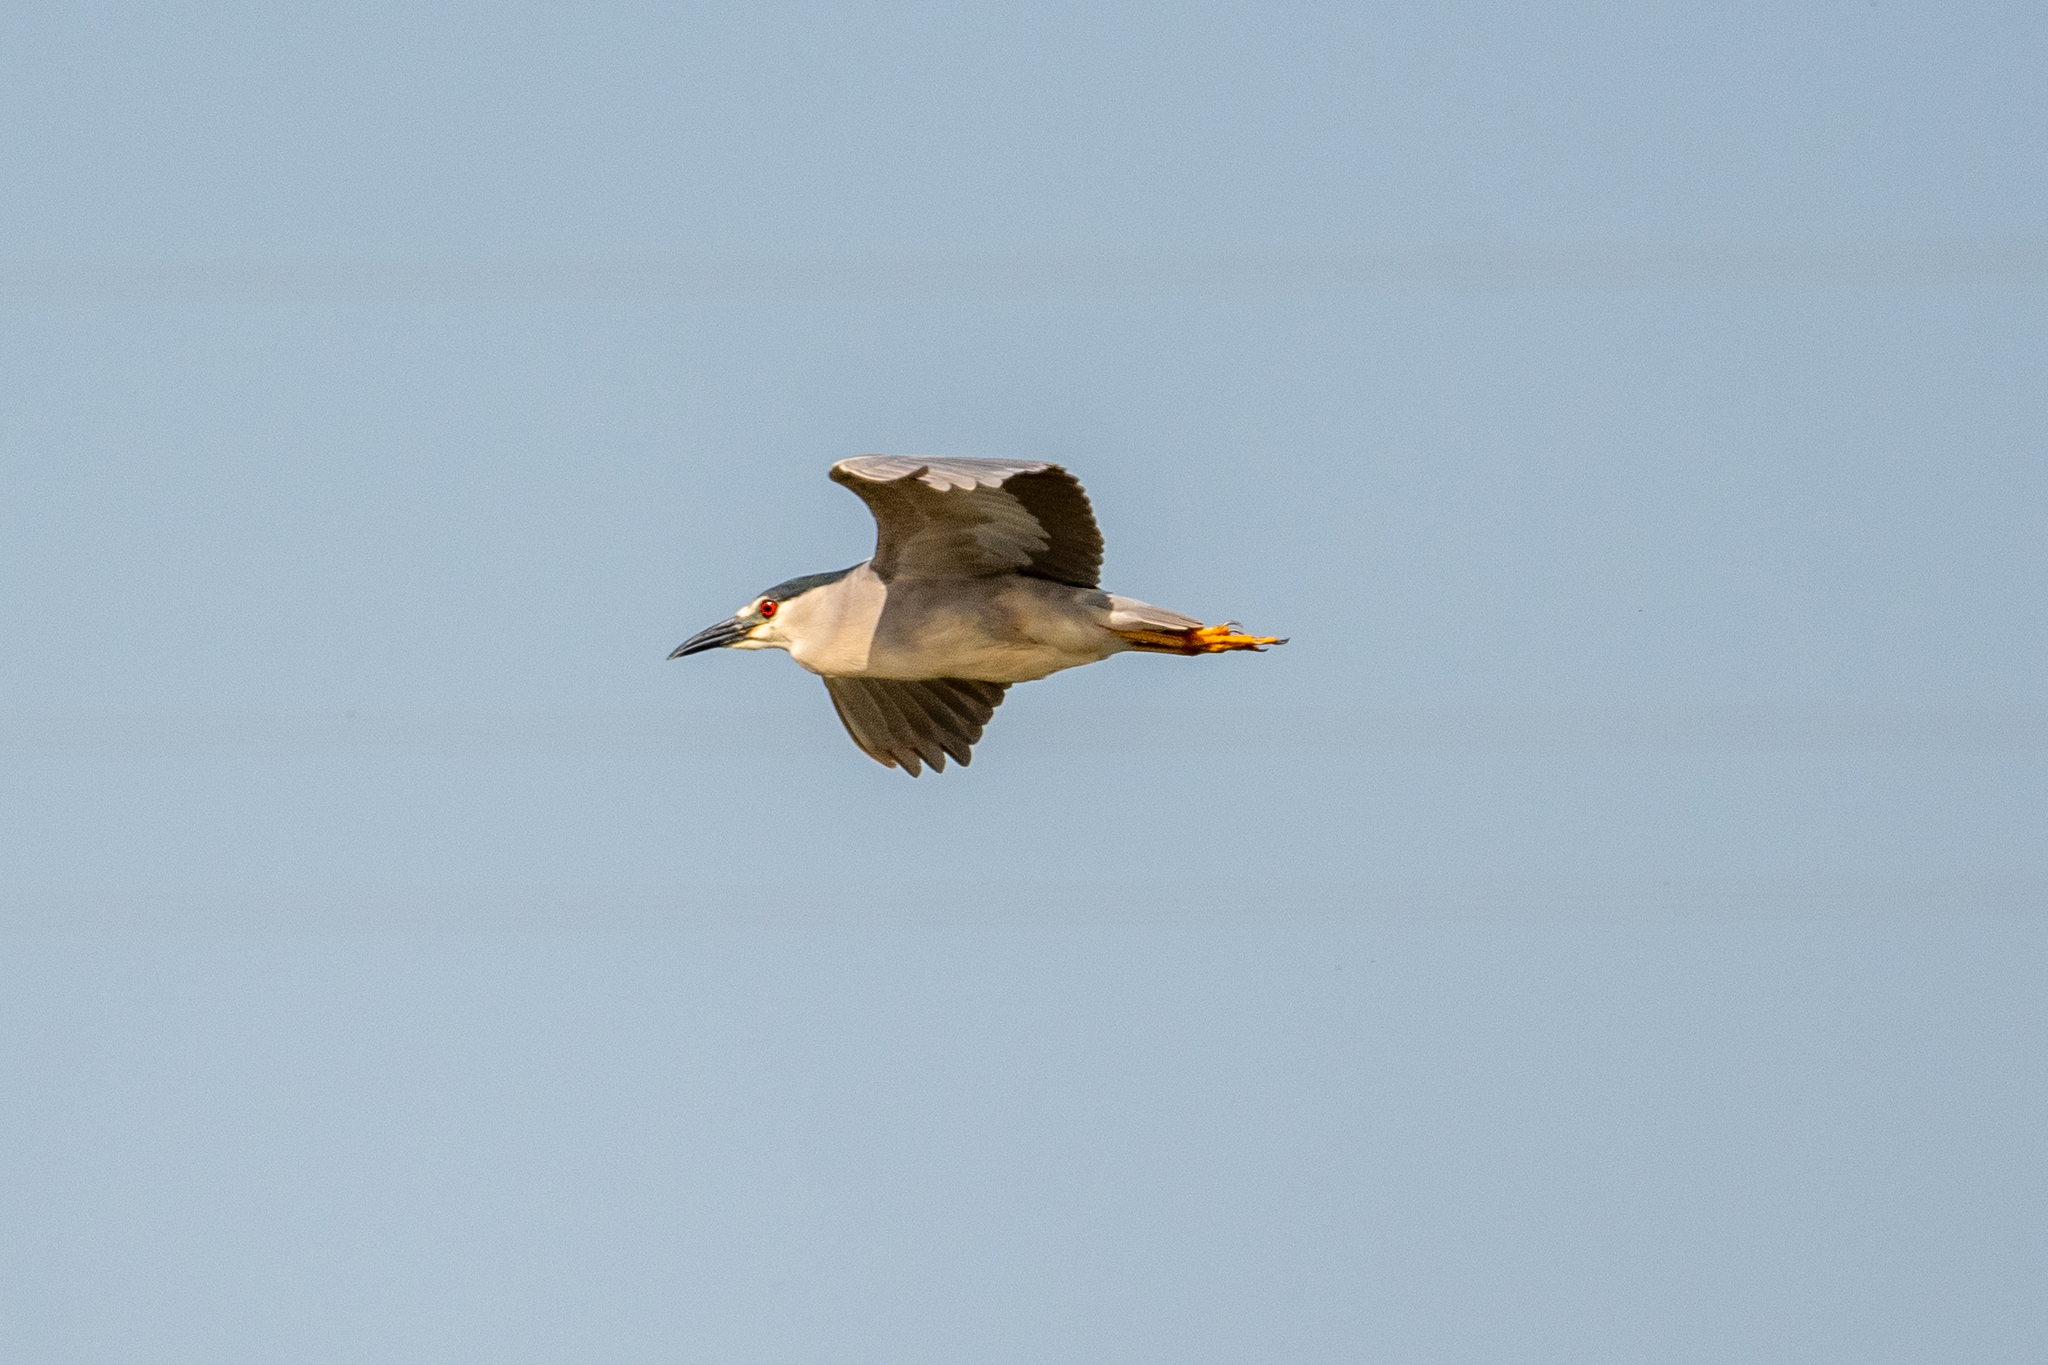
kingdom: Animalia
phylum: Chordata
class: Aves
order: Pelecaniformes
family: Ardeidae
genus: Nycticorax
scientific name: Nycticorax nycticorax
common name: Black-crowned night heron
